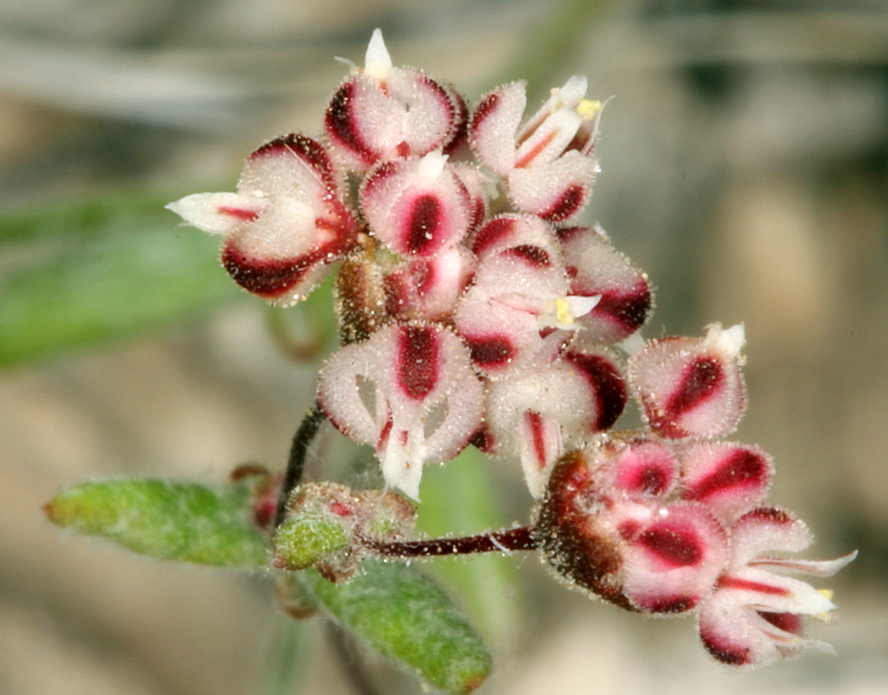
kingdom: Plantae
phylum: Tracheophyta
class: Magnoliopsida
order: Caryophyllales
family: Polygonaceae
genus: Eriogonum
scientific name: Eriogonum maculatum
